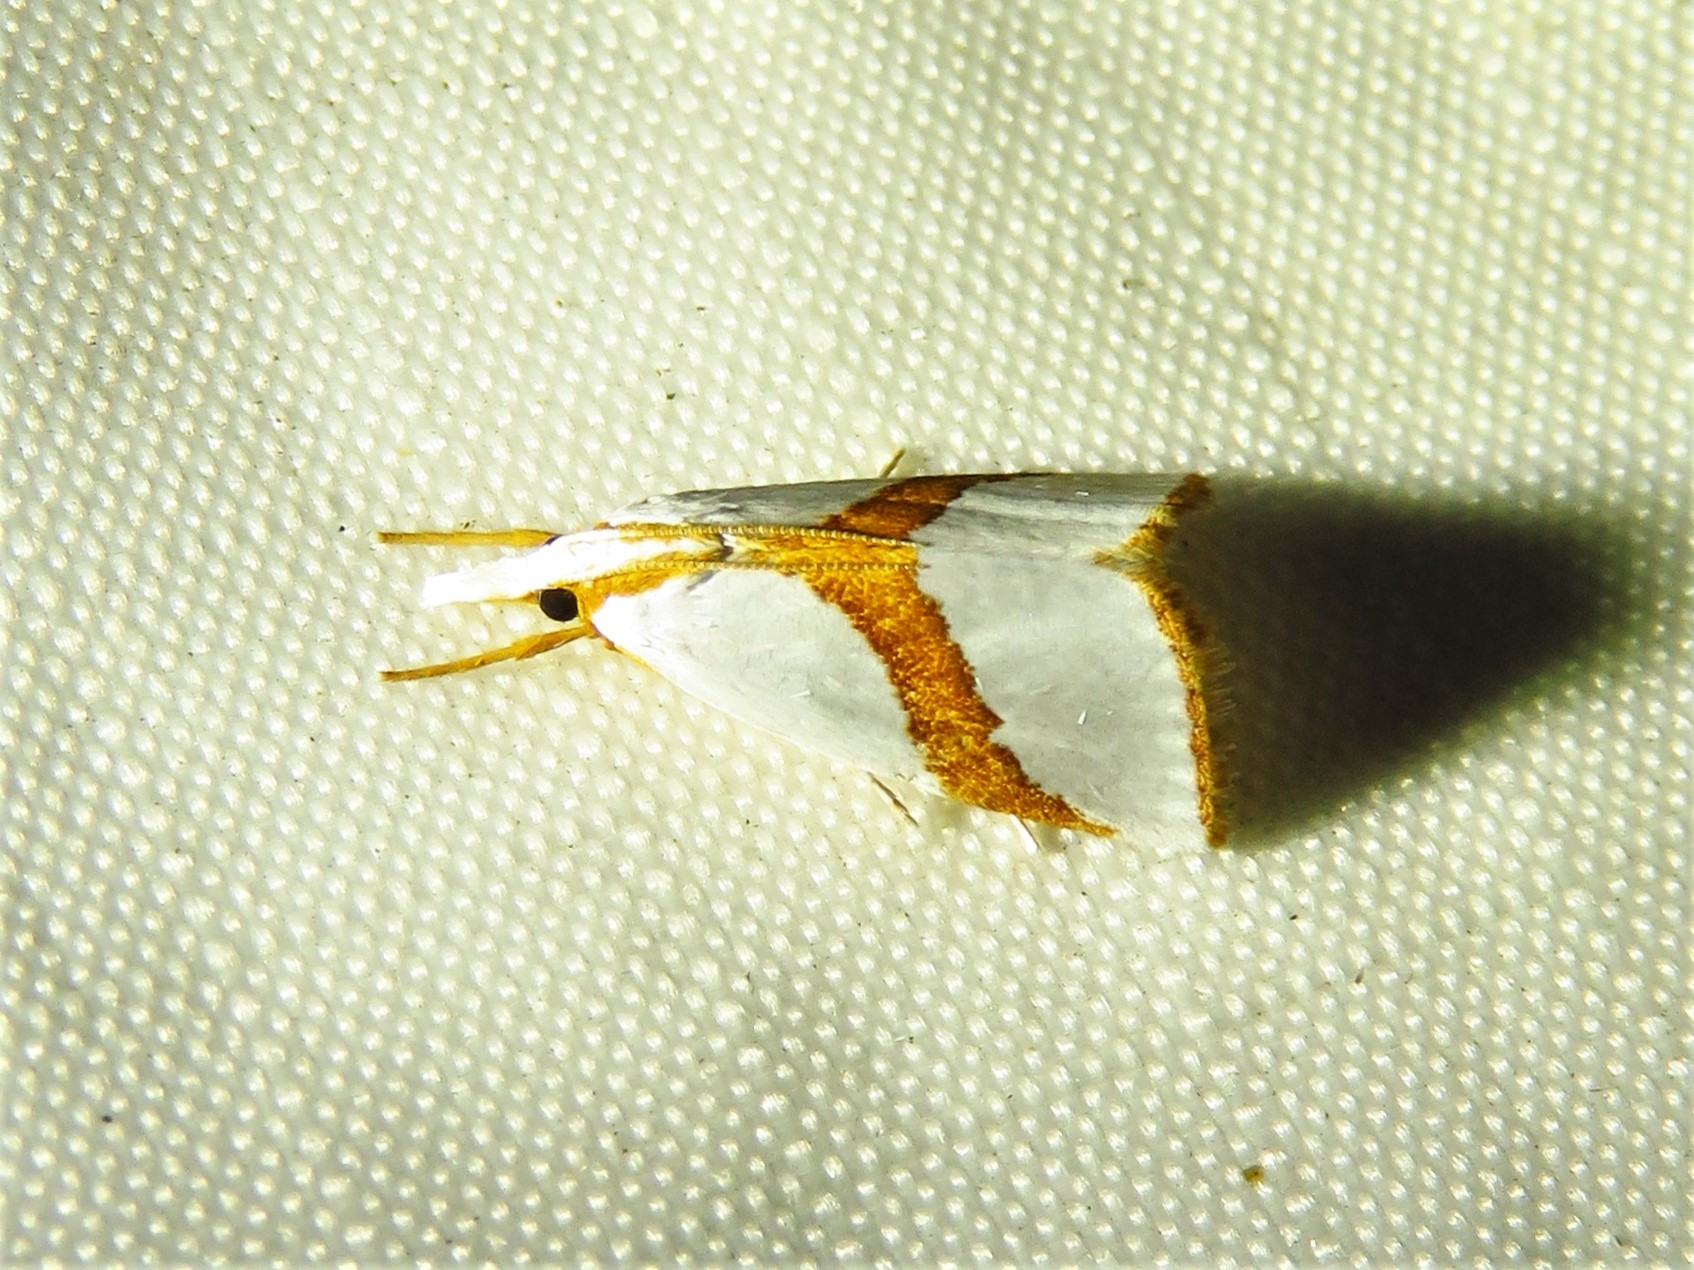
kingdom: Animalia
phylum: Arthropoda
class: Insecta
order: Lepidoptera
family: Crambidae
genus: Vaxi
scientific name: Vaxi critica
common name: Straight-lined vaxi moth
